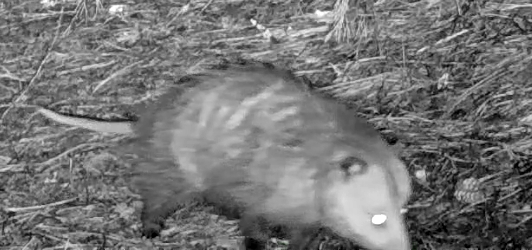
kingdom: Animalia
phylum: Chordata
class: Mammalia
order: Didelphimorphia
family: Didelphidae
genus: Didelphis
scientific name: Didelphis virginiana
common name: Virginia opossum
